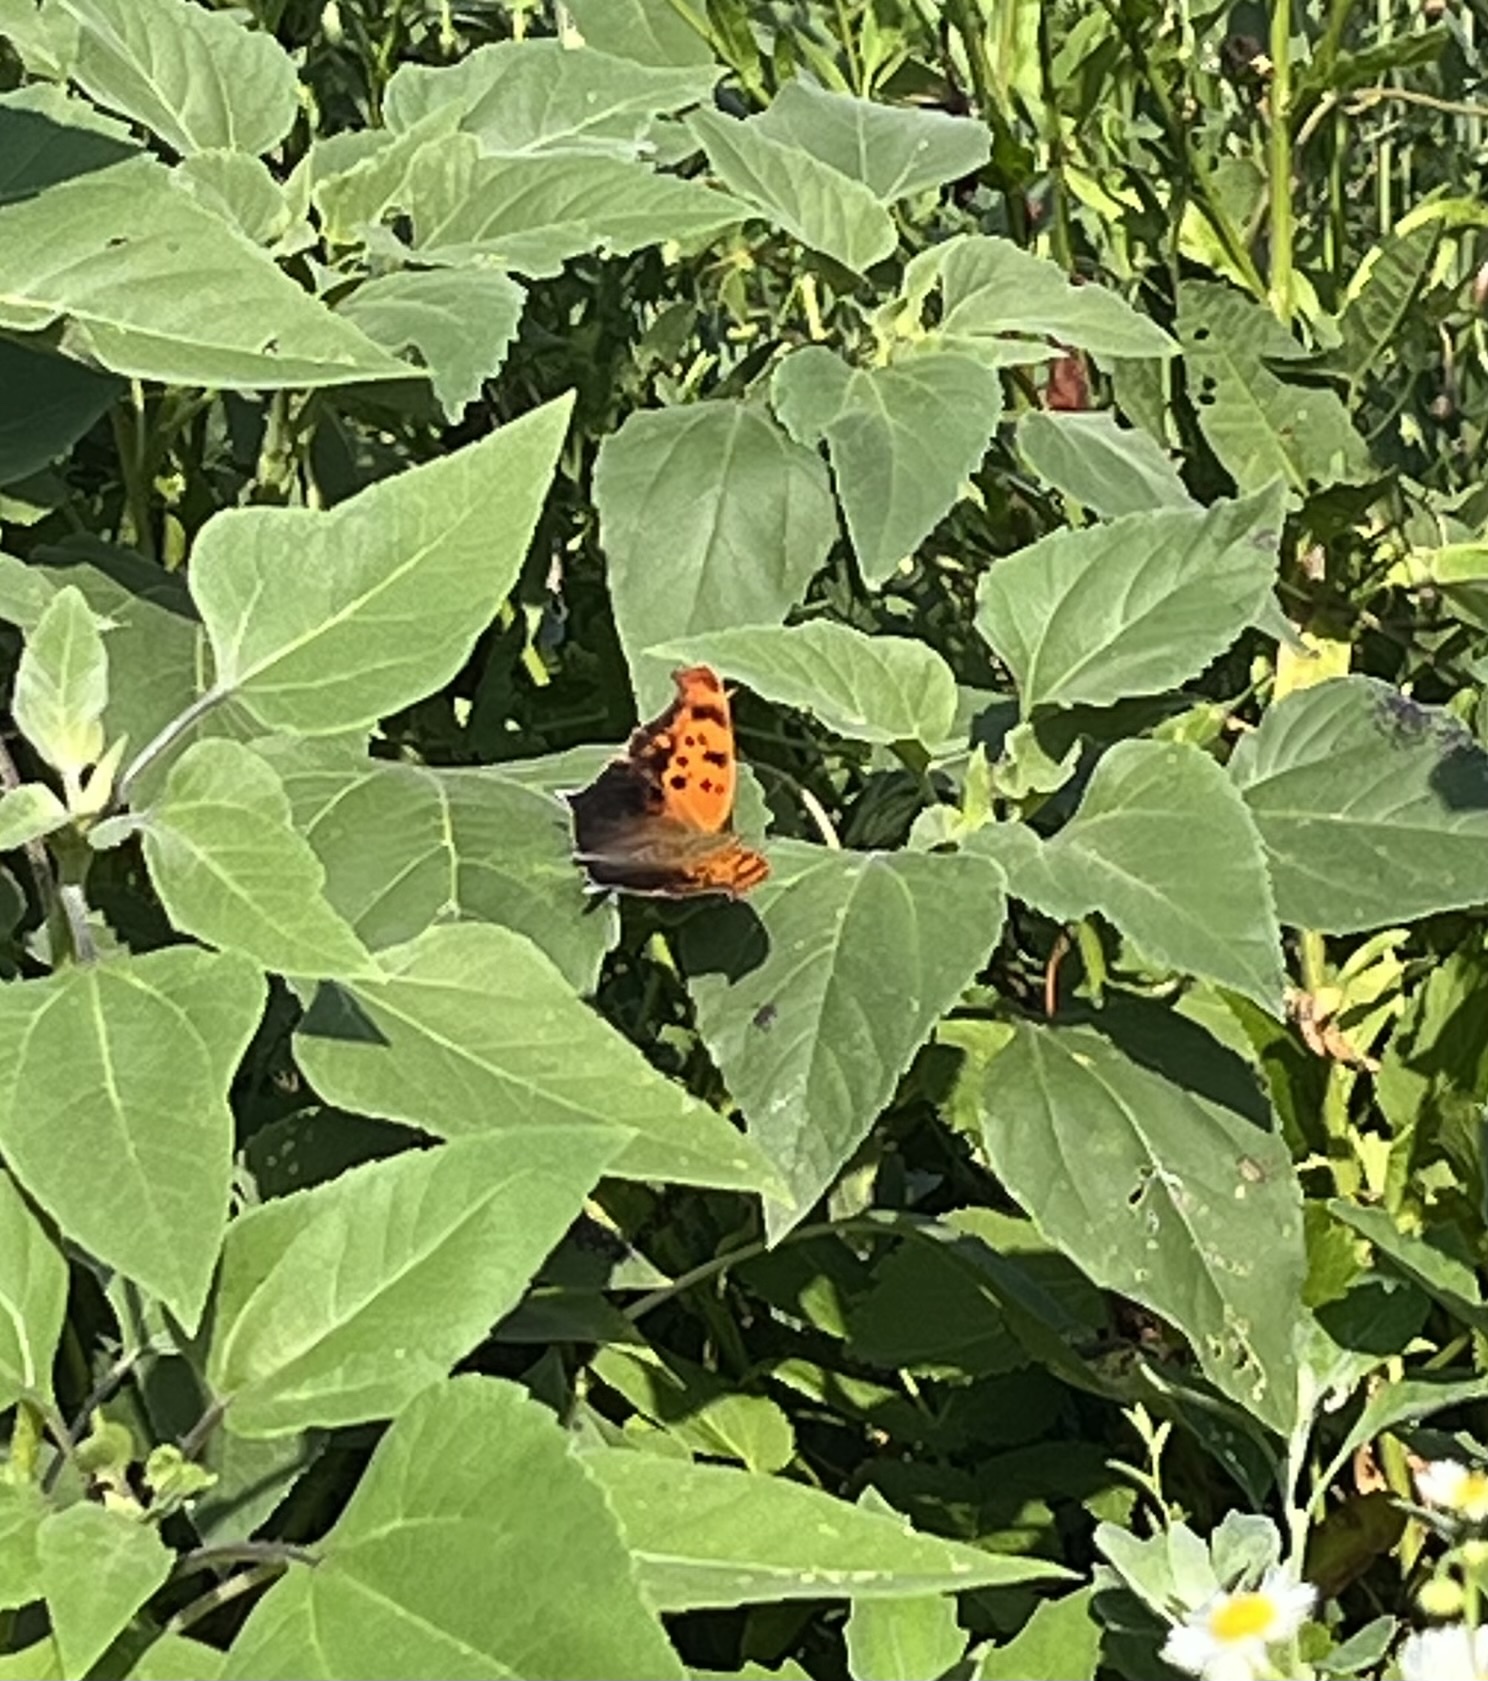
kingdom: Animalia
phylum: Arthropoda
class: Insecta
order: Lepidoptera
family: Nymphalidae
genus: Polygonia
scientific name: Polygonia interrogationis
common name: Question mark
